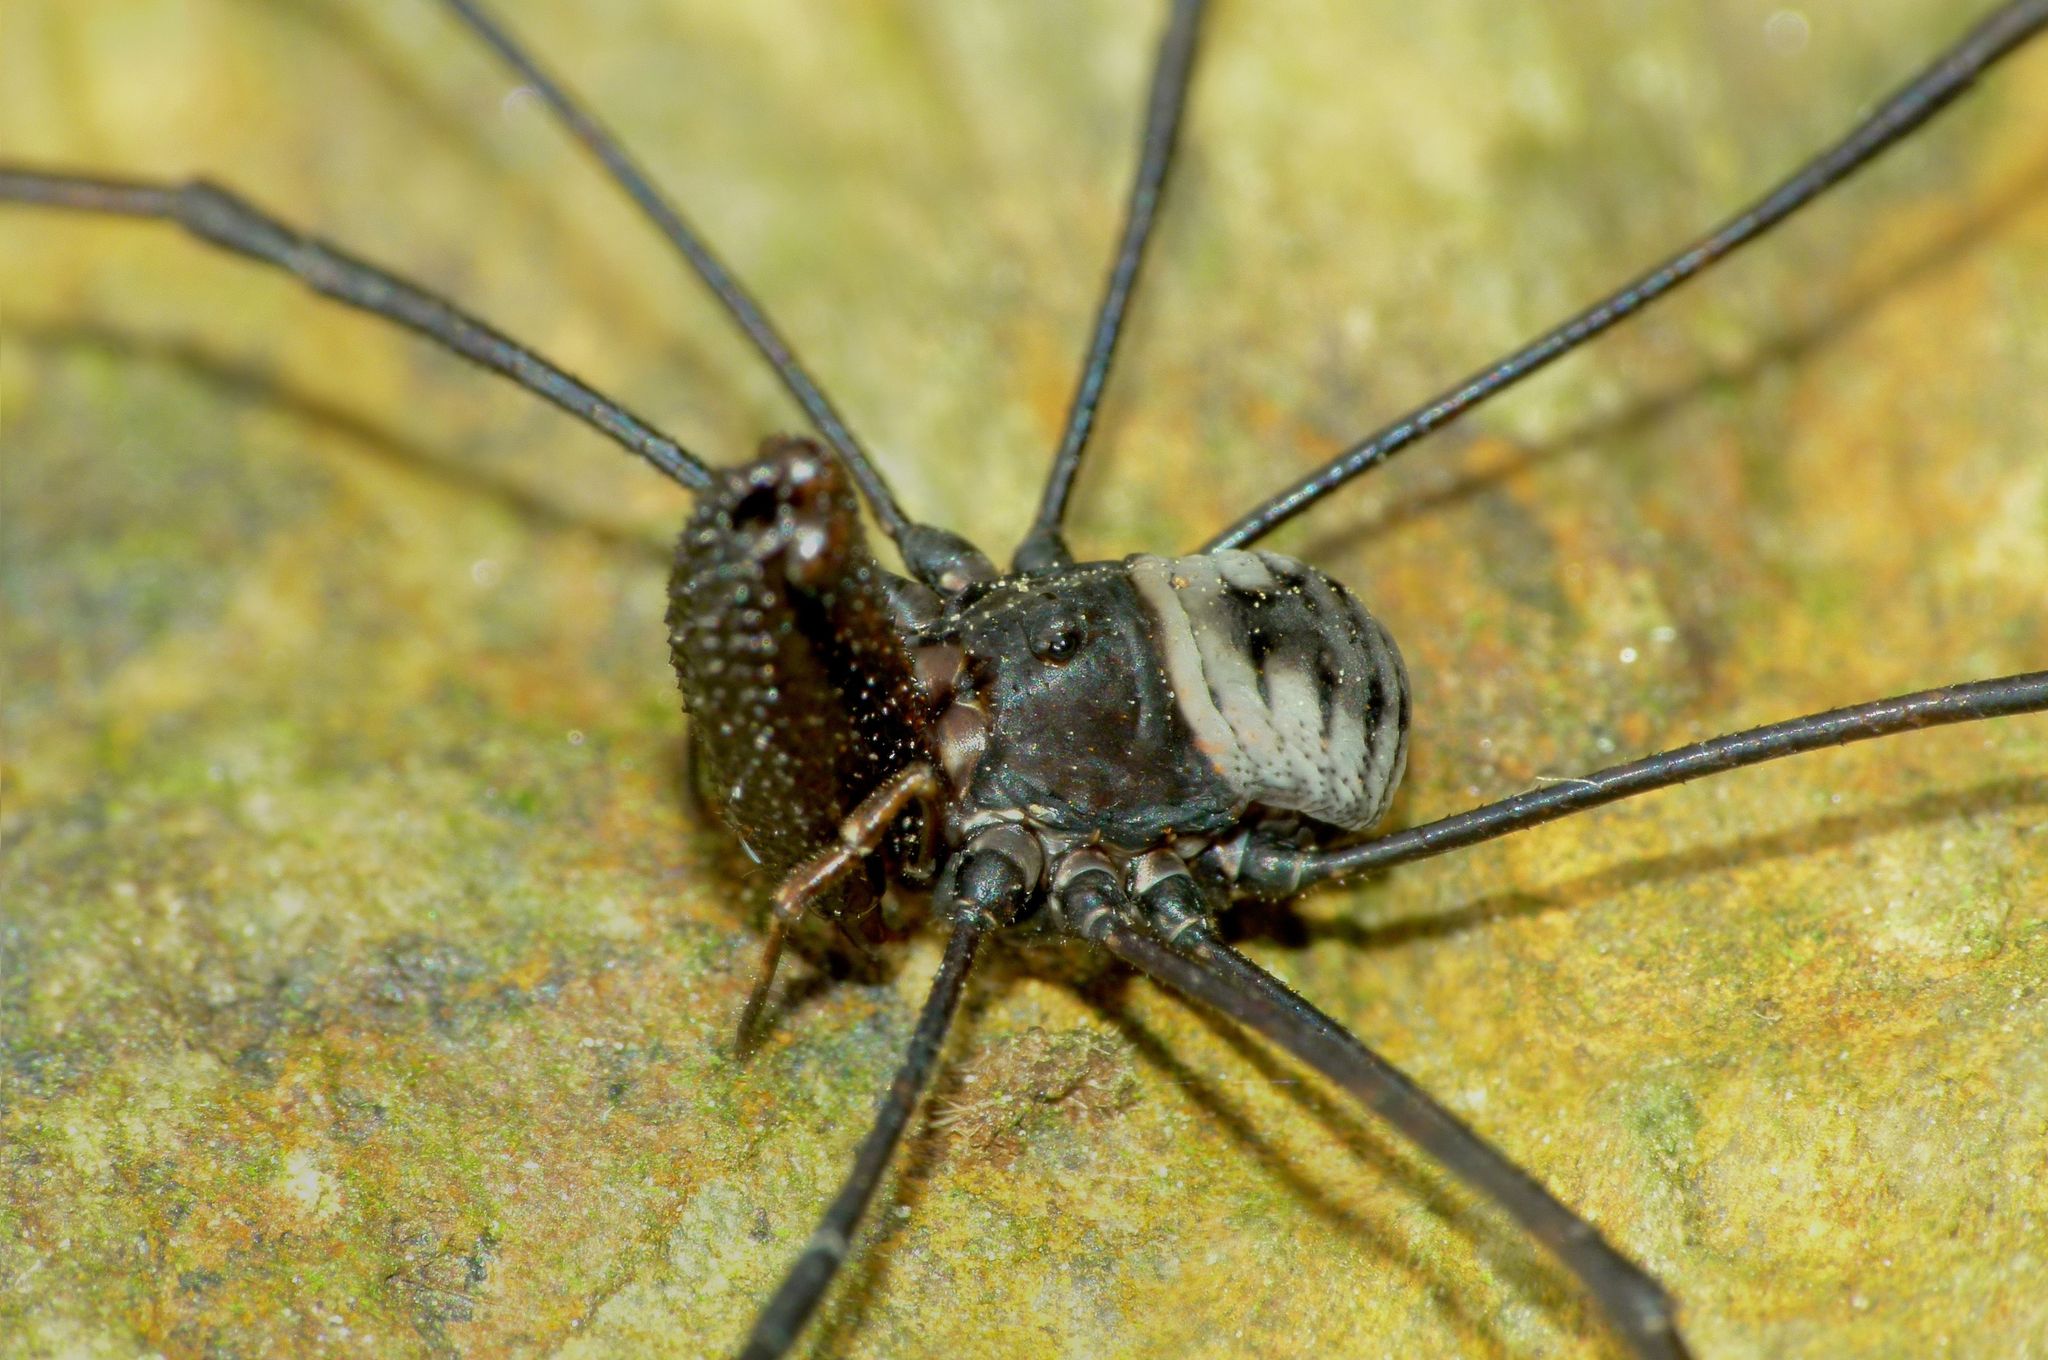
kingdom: Animalia
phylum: Arthropoda
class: Arachnida
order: Opiliones
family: Neopilionidae
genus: Pantopsalis
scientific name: Pantopsalis coronata
